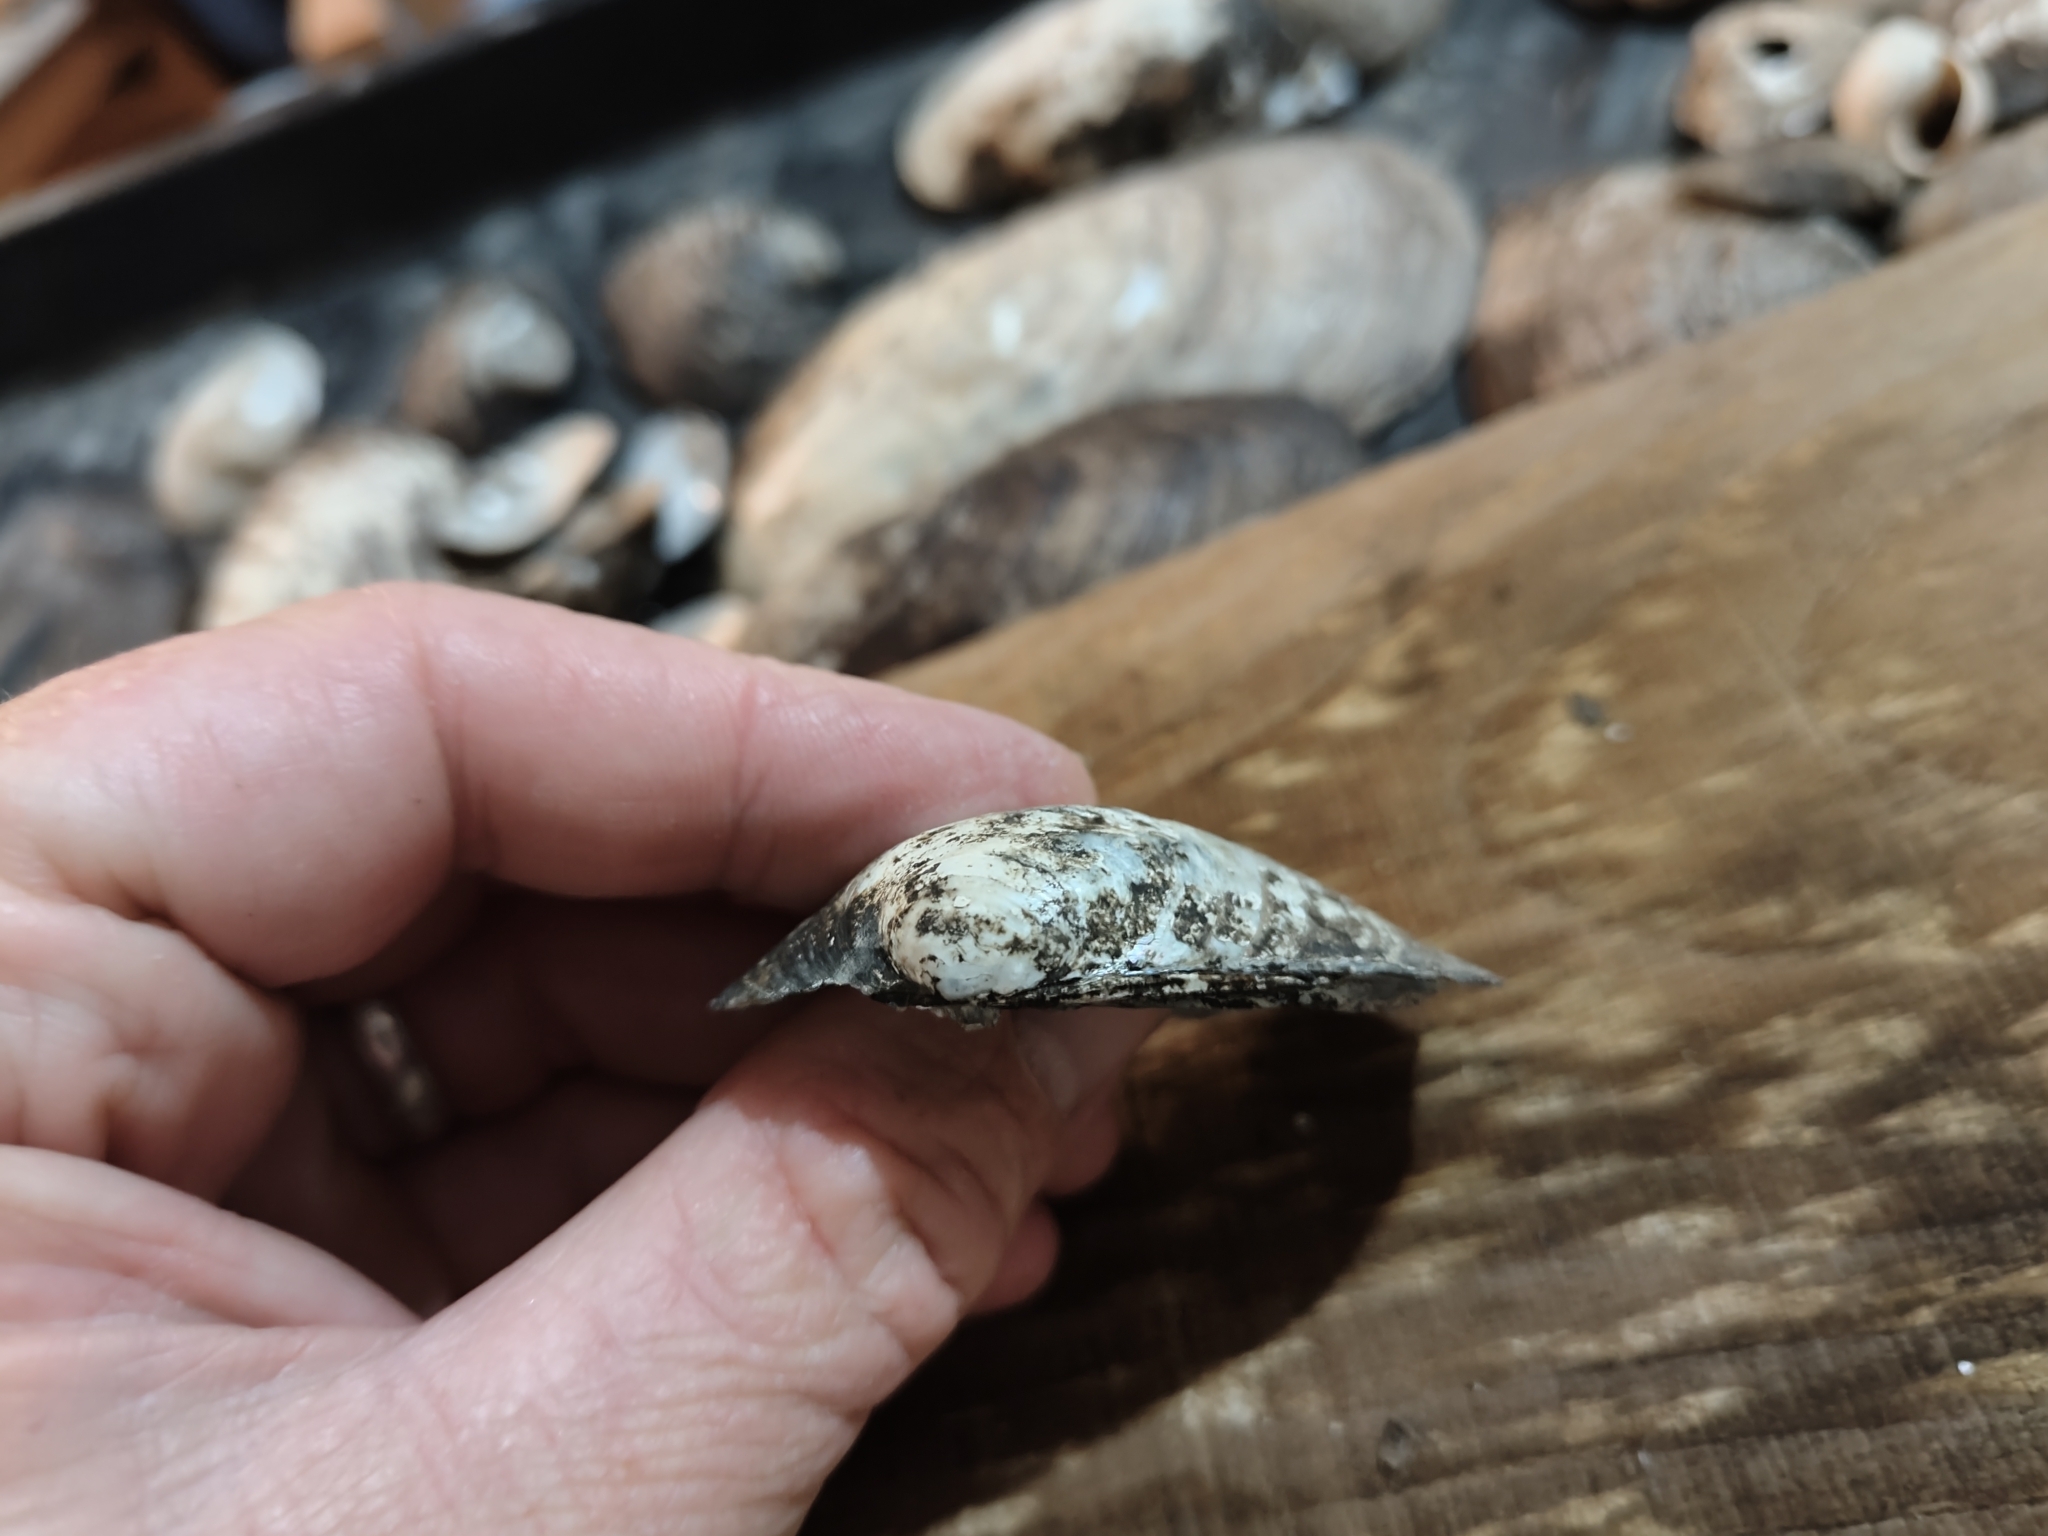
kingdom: Animalia
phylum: Mollusca
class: Bivalvia
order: Unionida
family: Unionidae
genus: Amblema
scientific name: Amblema plicata
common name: Threeridge
